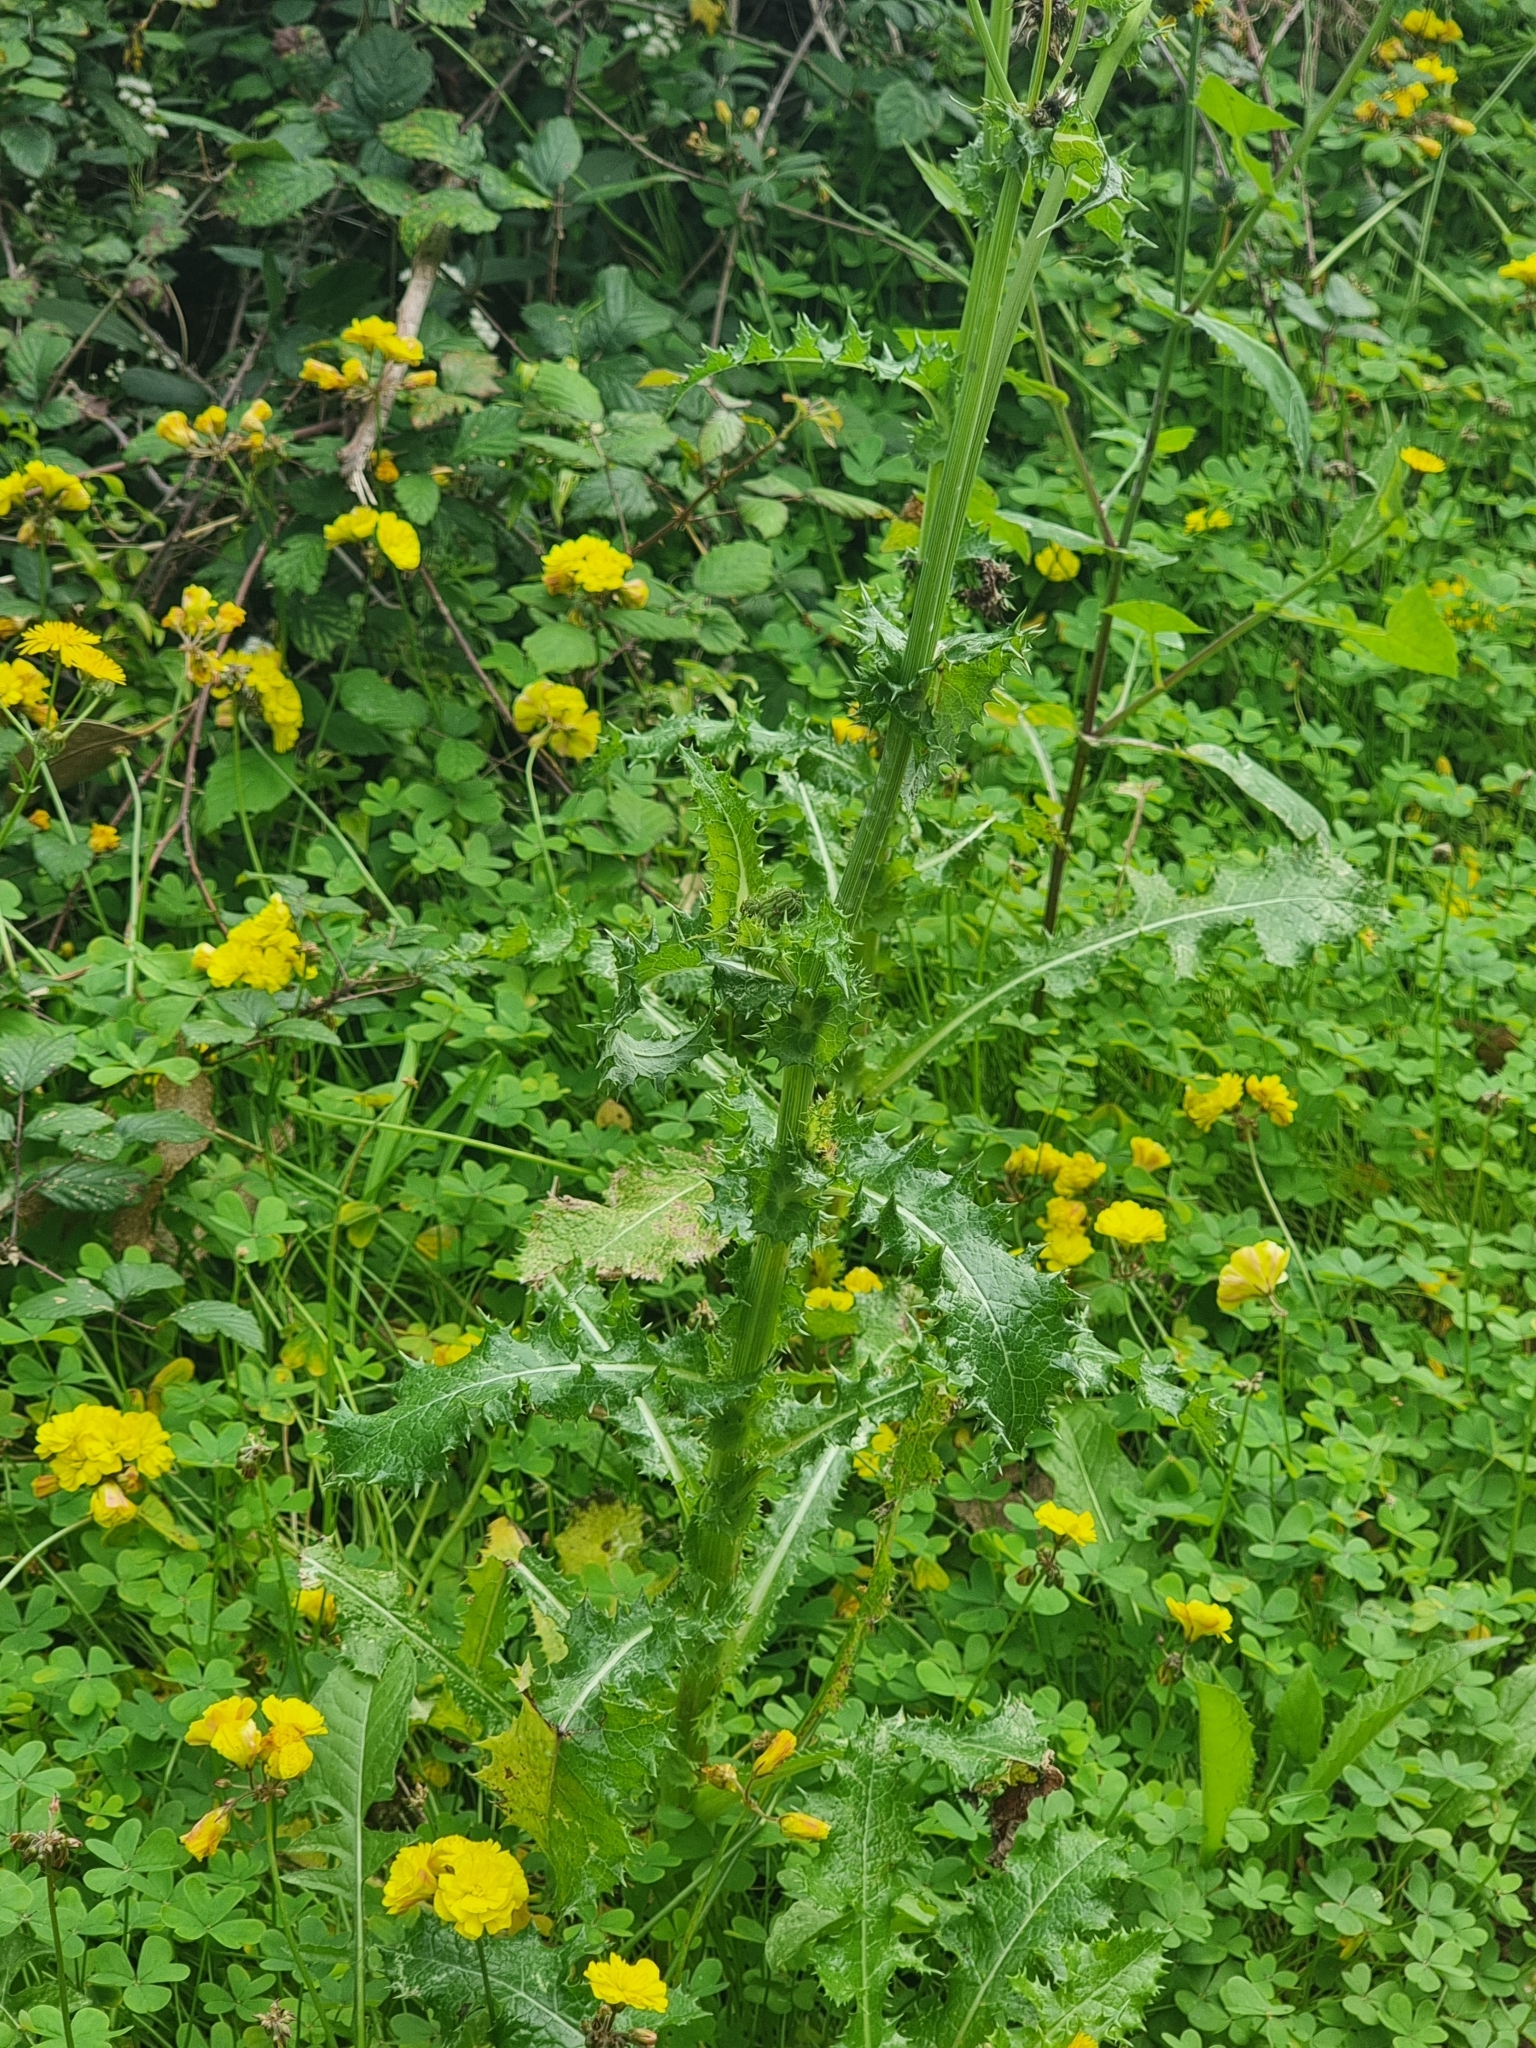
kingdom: Plantae
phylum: Tracheophyta
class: Magnoliopsida
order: Asterales
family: Asteraceae
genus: Sonchus
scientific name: Sonchus asper
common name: Prickly sow-thistle
